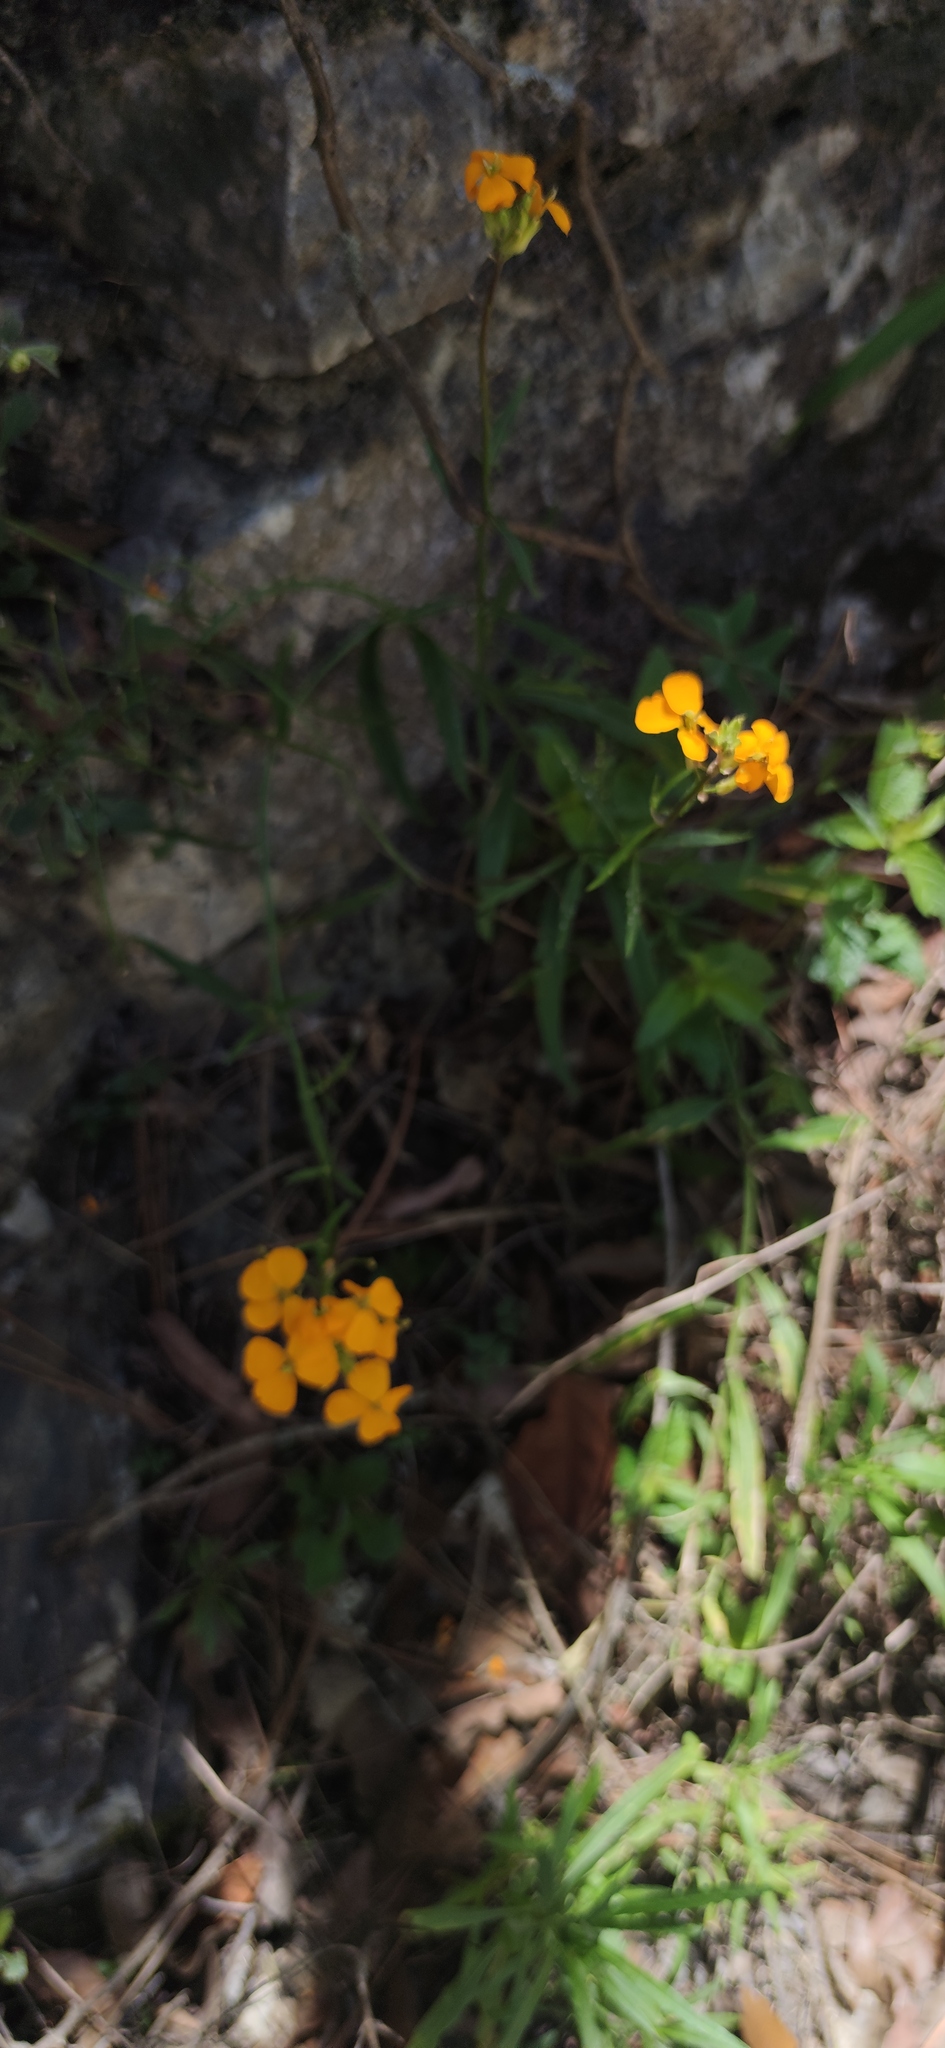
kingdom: Plantae
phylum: Tracheophyta
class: Magnoliopsida
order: Brassicales
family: Brassicaceae
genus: Erysimum
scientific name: Erysimum capitatum
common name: Western wallflower
